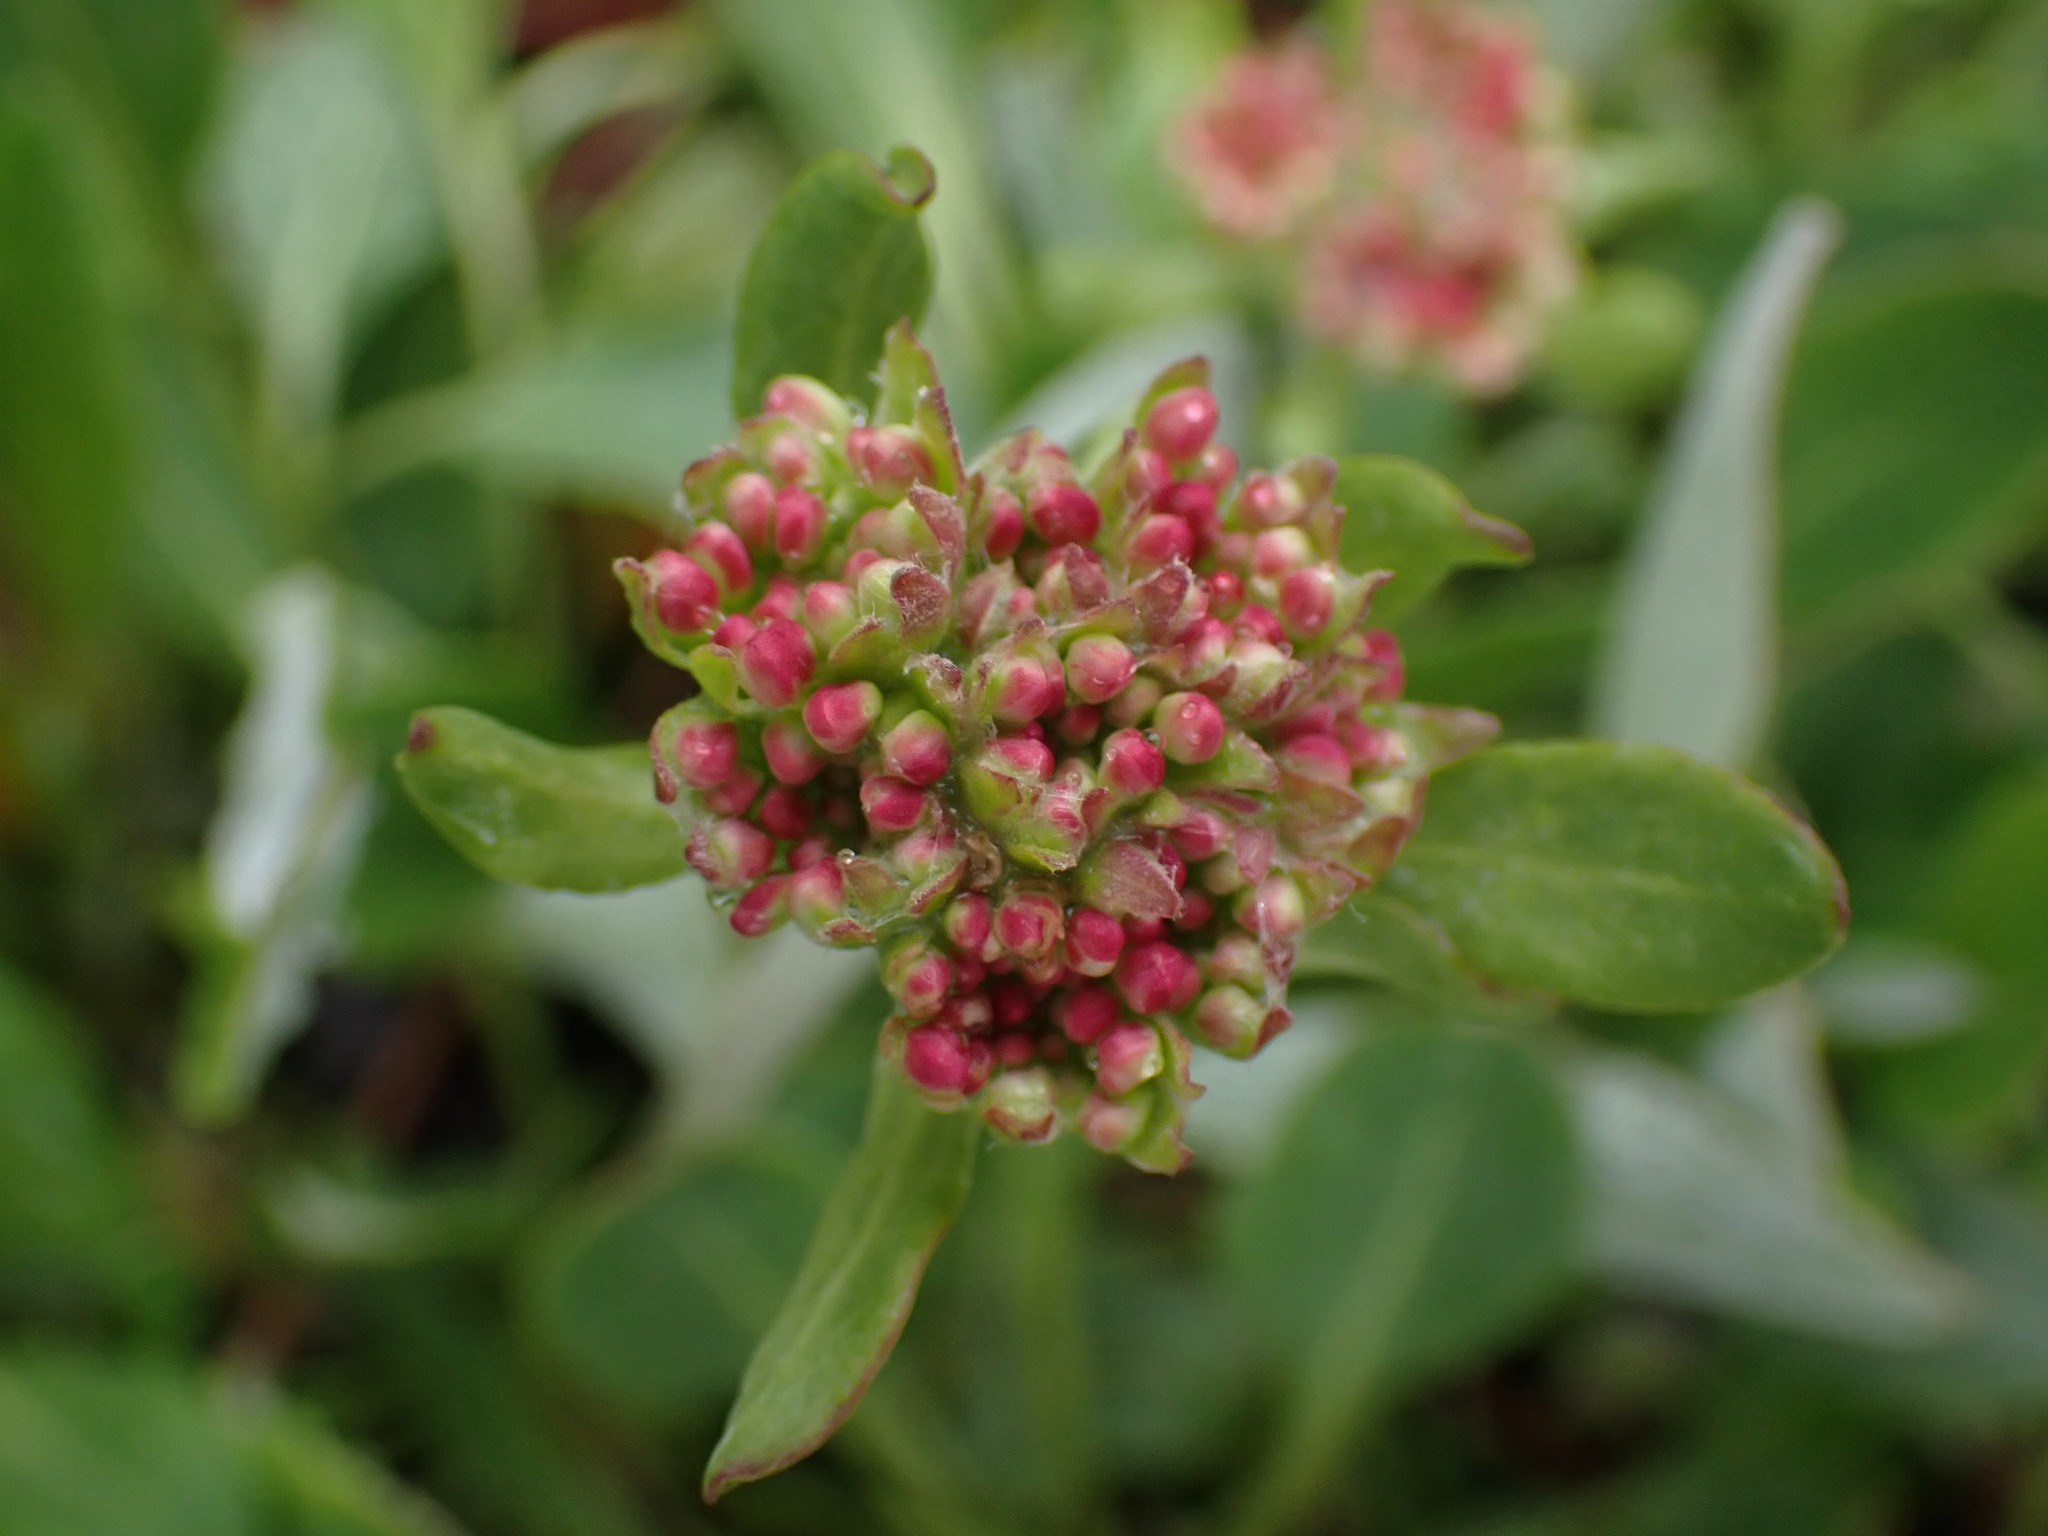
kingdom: Plantae
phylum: Tracheophyta
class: Magnoliopsida
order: Caryophyllales
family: Polygonaceae
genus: Eriogonum
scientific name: Eriogonum umbellatum
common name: Sulfur-buckwheat
